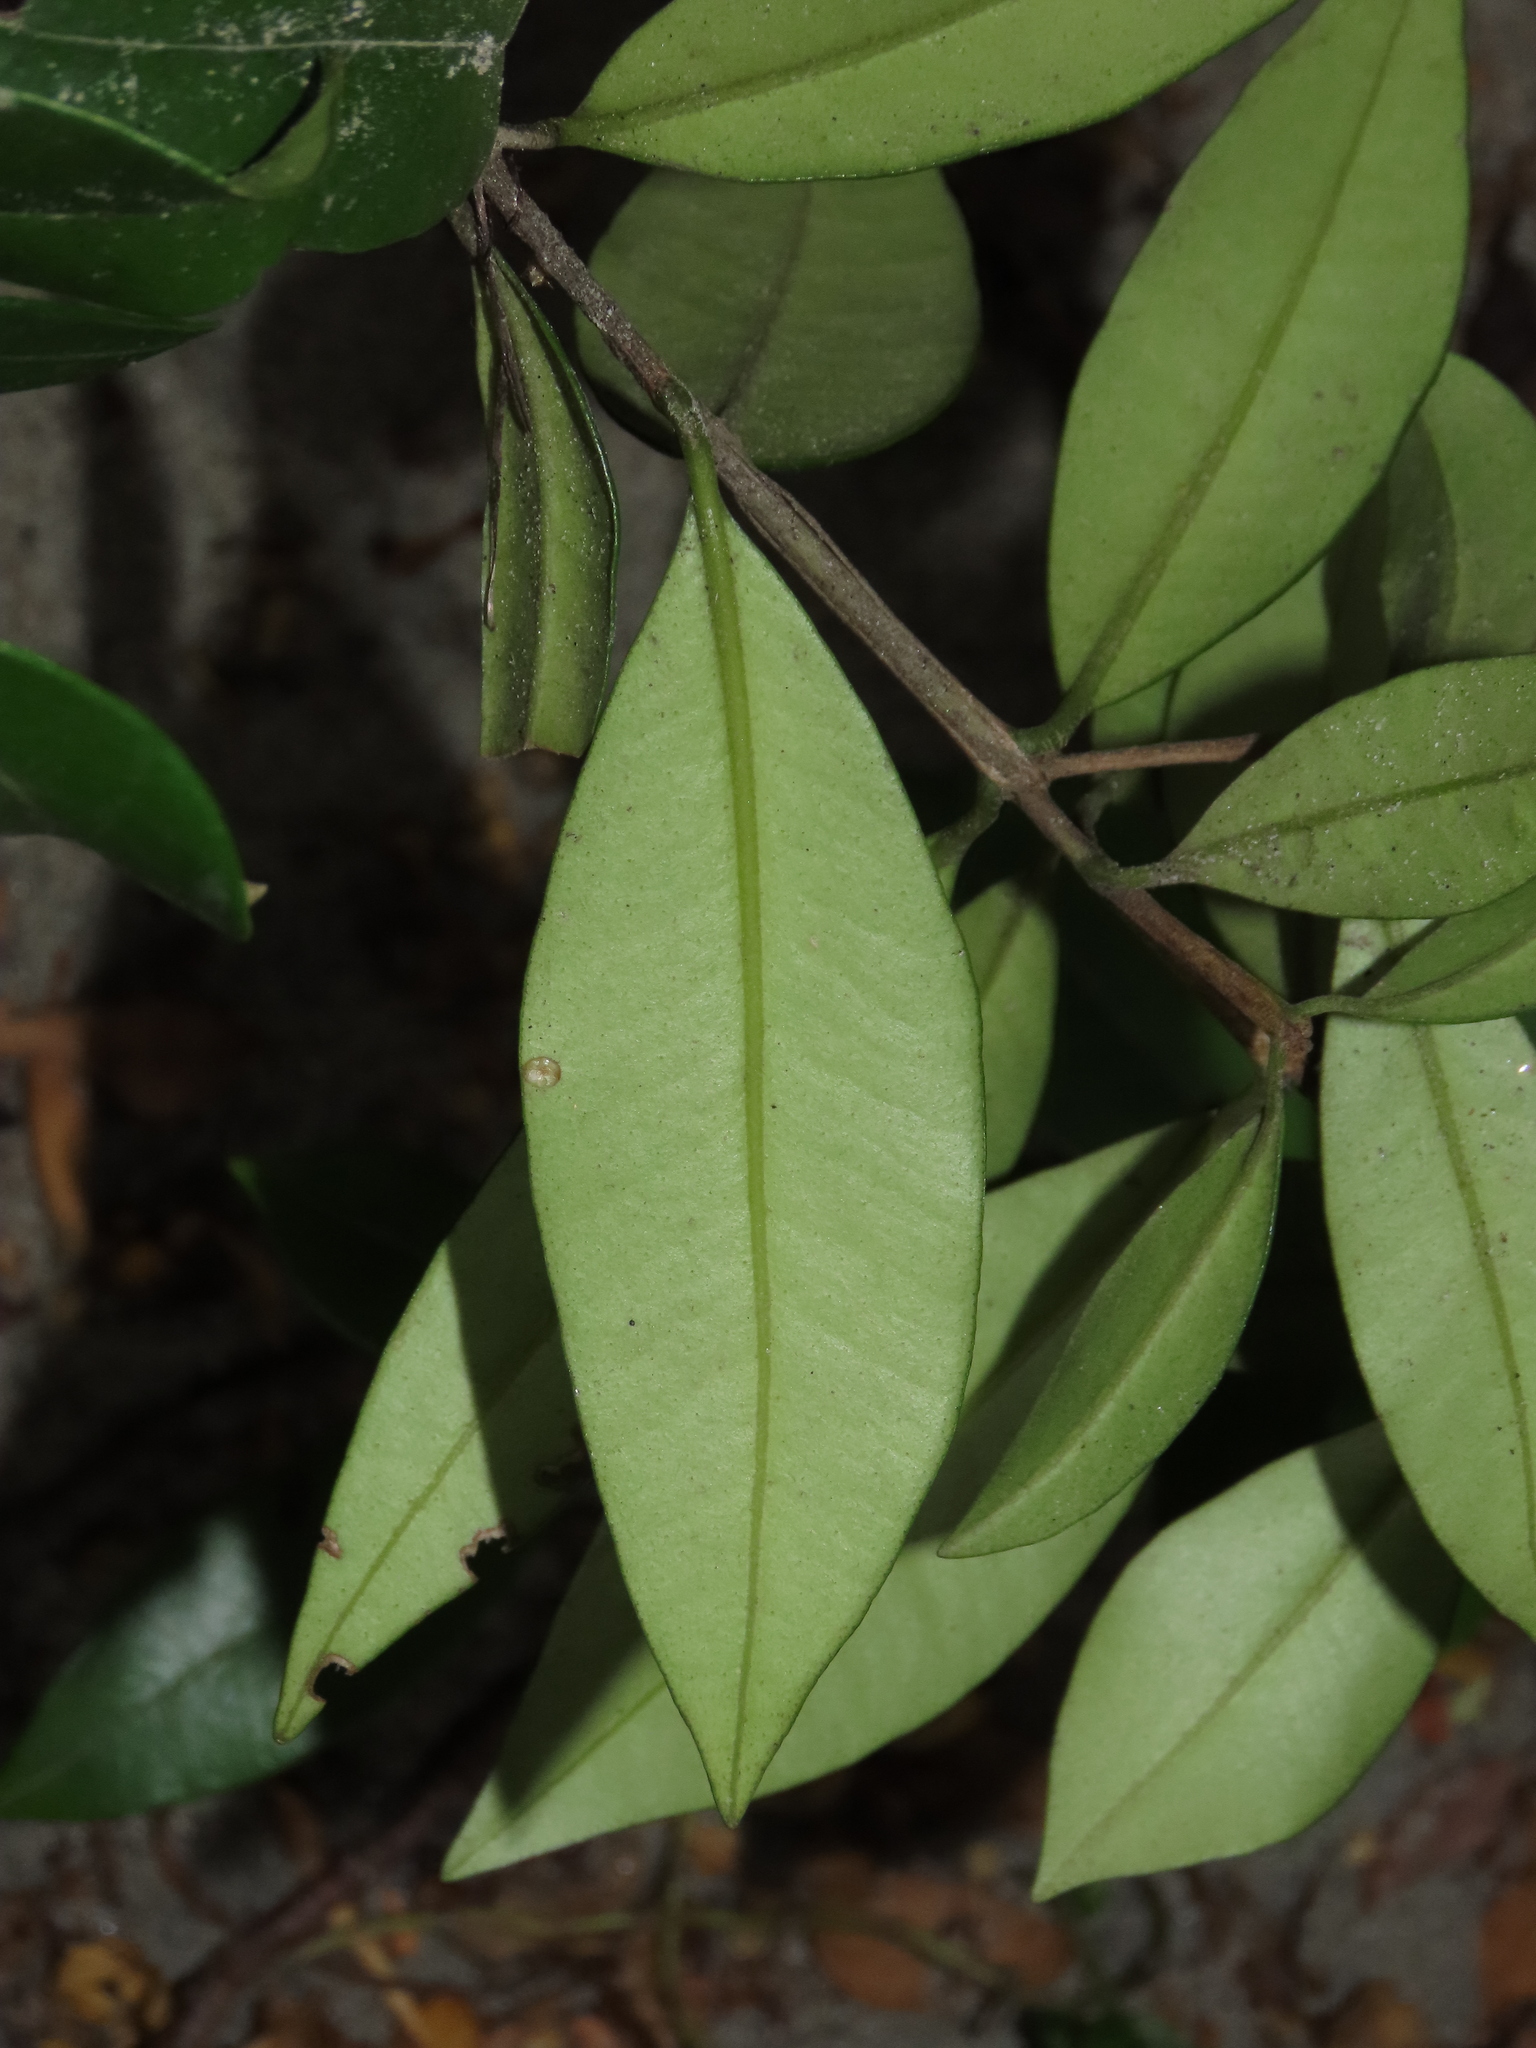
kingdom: Plantae
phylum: Tracheophyta
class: Magnoliopsida
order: Myrtales
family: Myrtaceae
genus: Myrceugenia
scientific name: Myrceugenia planipes
